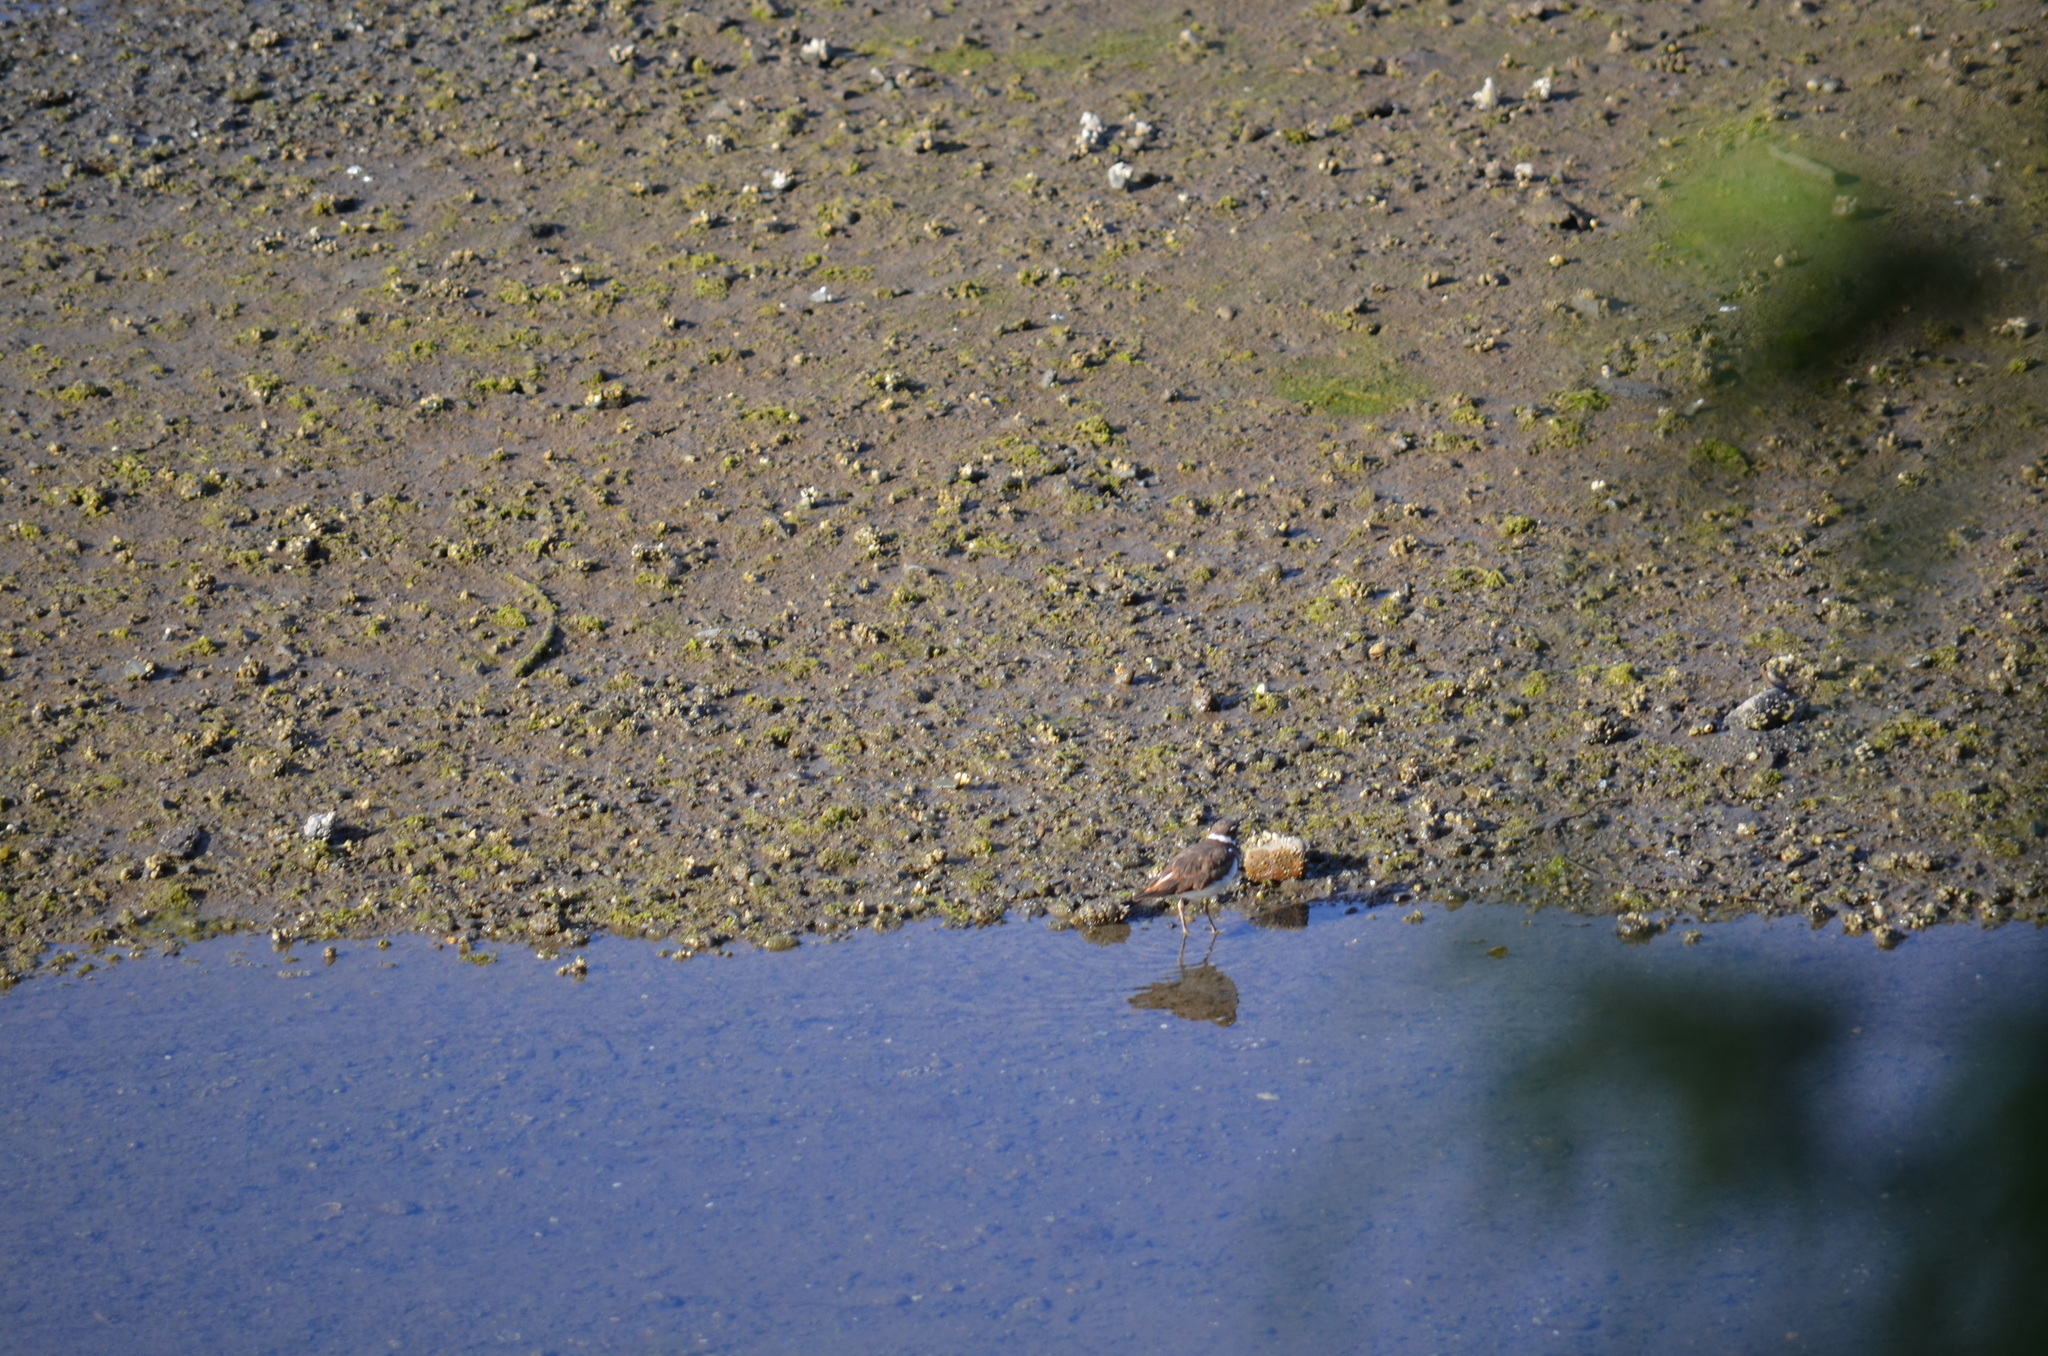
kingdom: Animalia
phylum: Chordata
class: Aves
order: Charadriiformes
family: Charadriidae
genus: Charadrius
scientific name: Charadrius vociferus
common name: Killdeer
